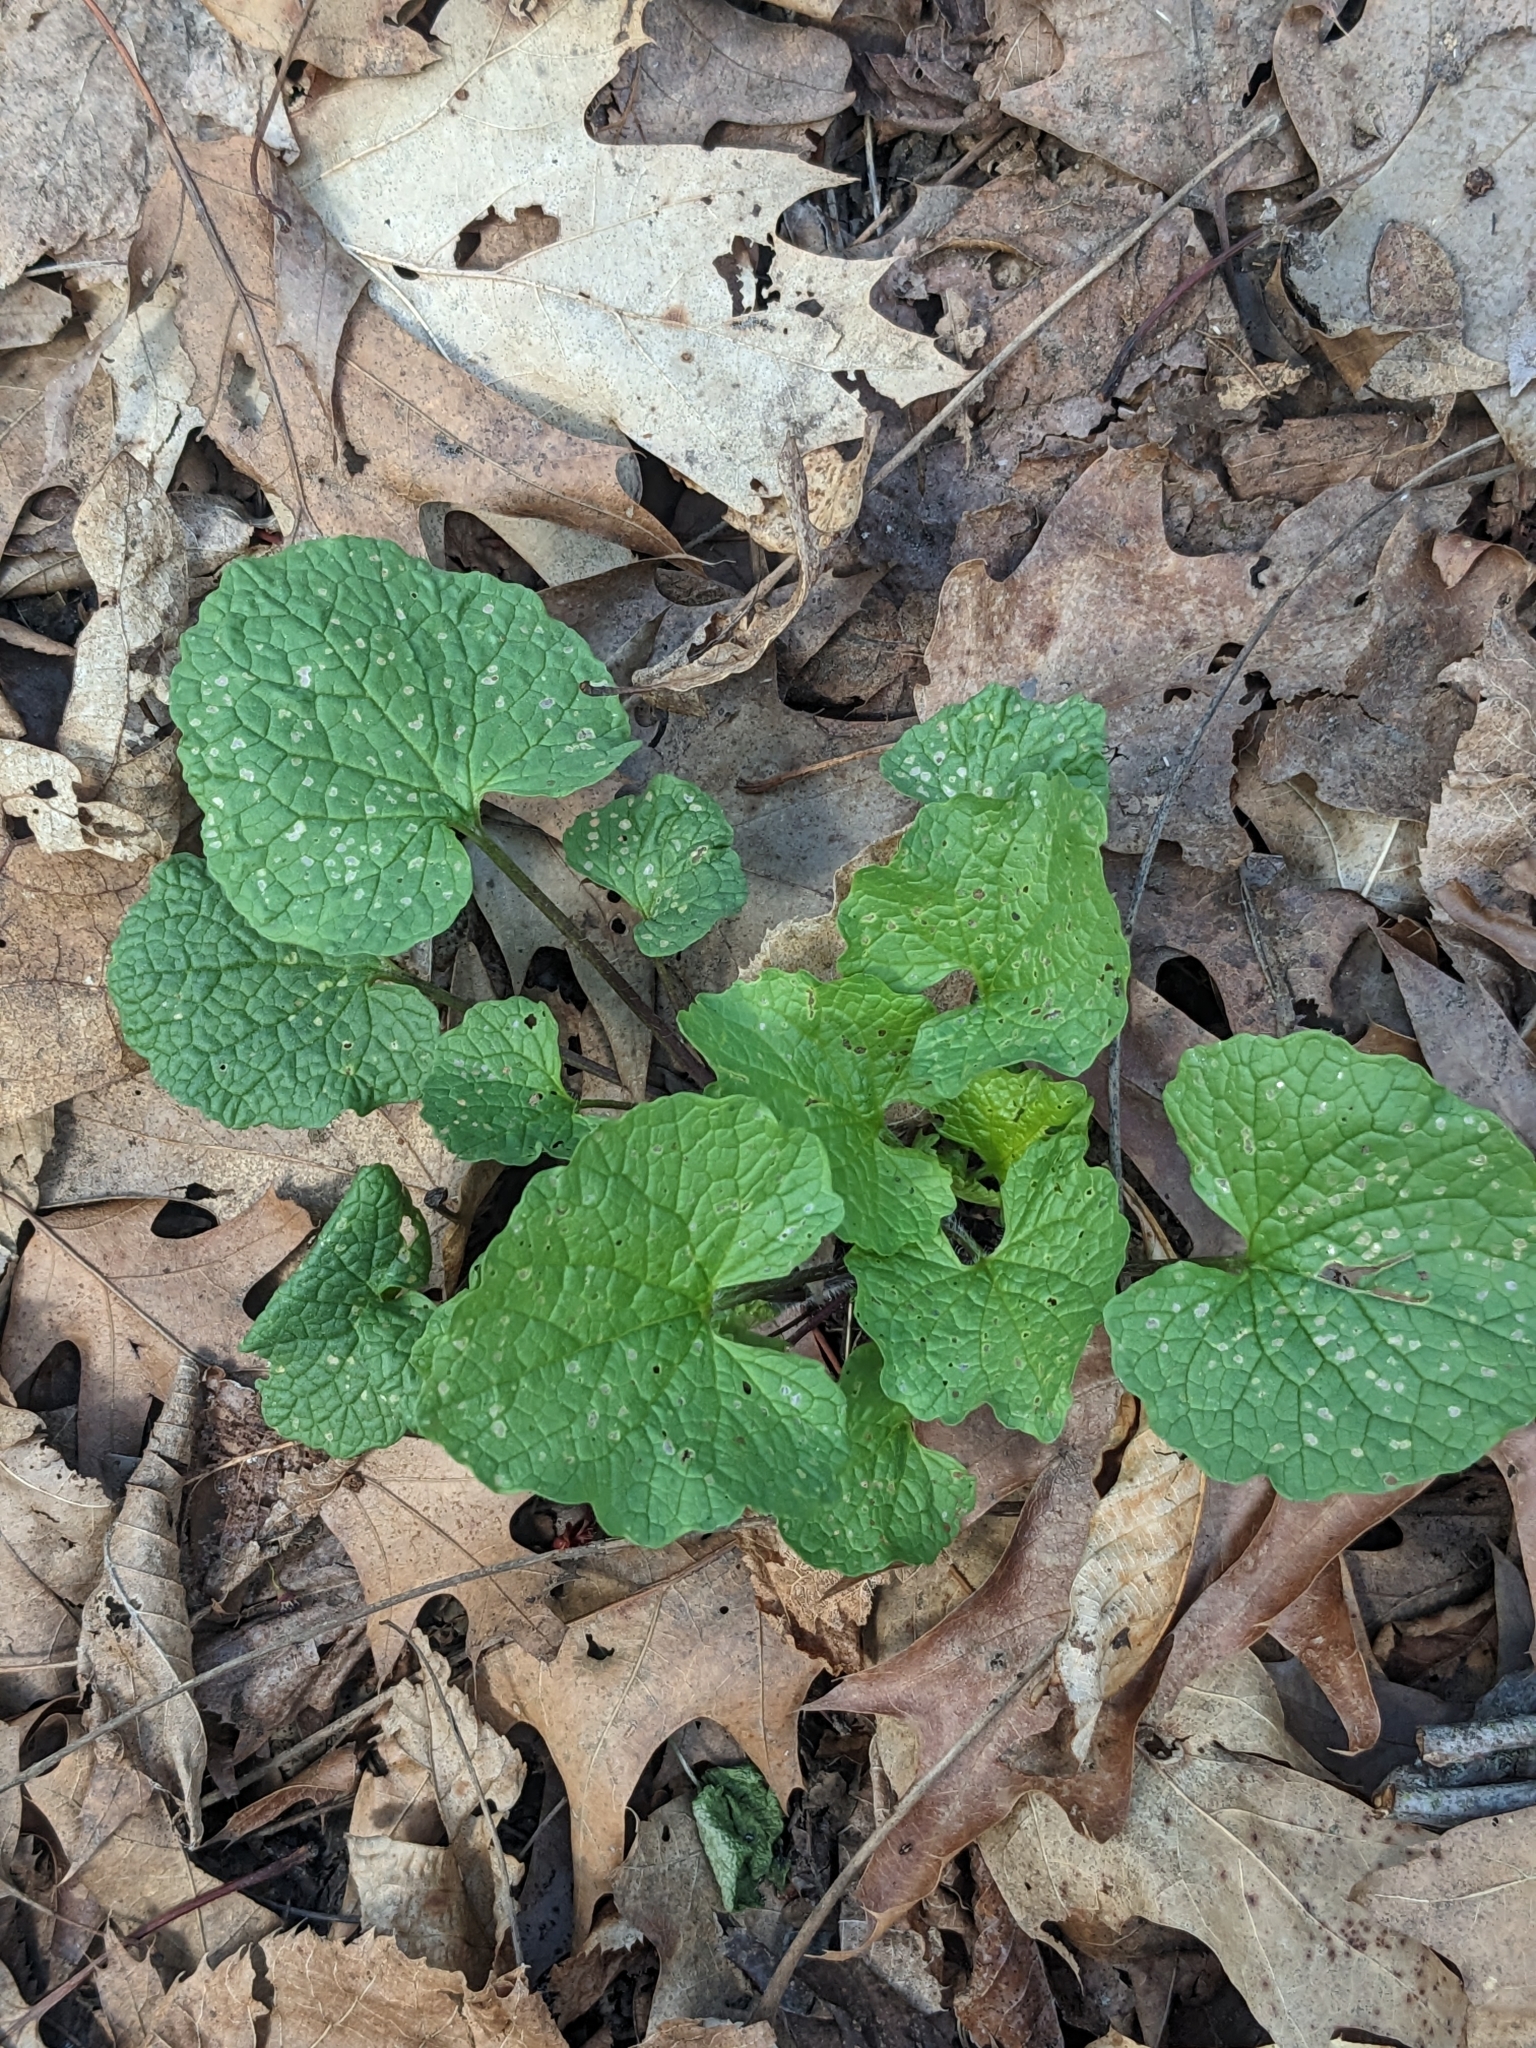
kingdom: Plantae
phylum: Tracheophyta
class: Magnoliopsida
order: Brassicales
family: Brassicaceae
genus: Alliaria
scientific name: Alliaria petiolata
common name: Garlic mustard
